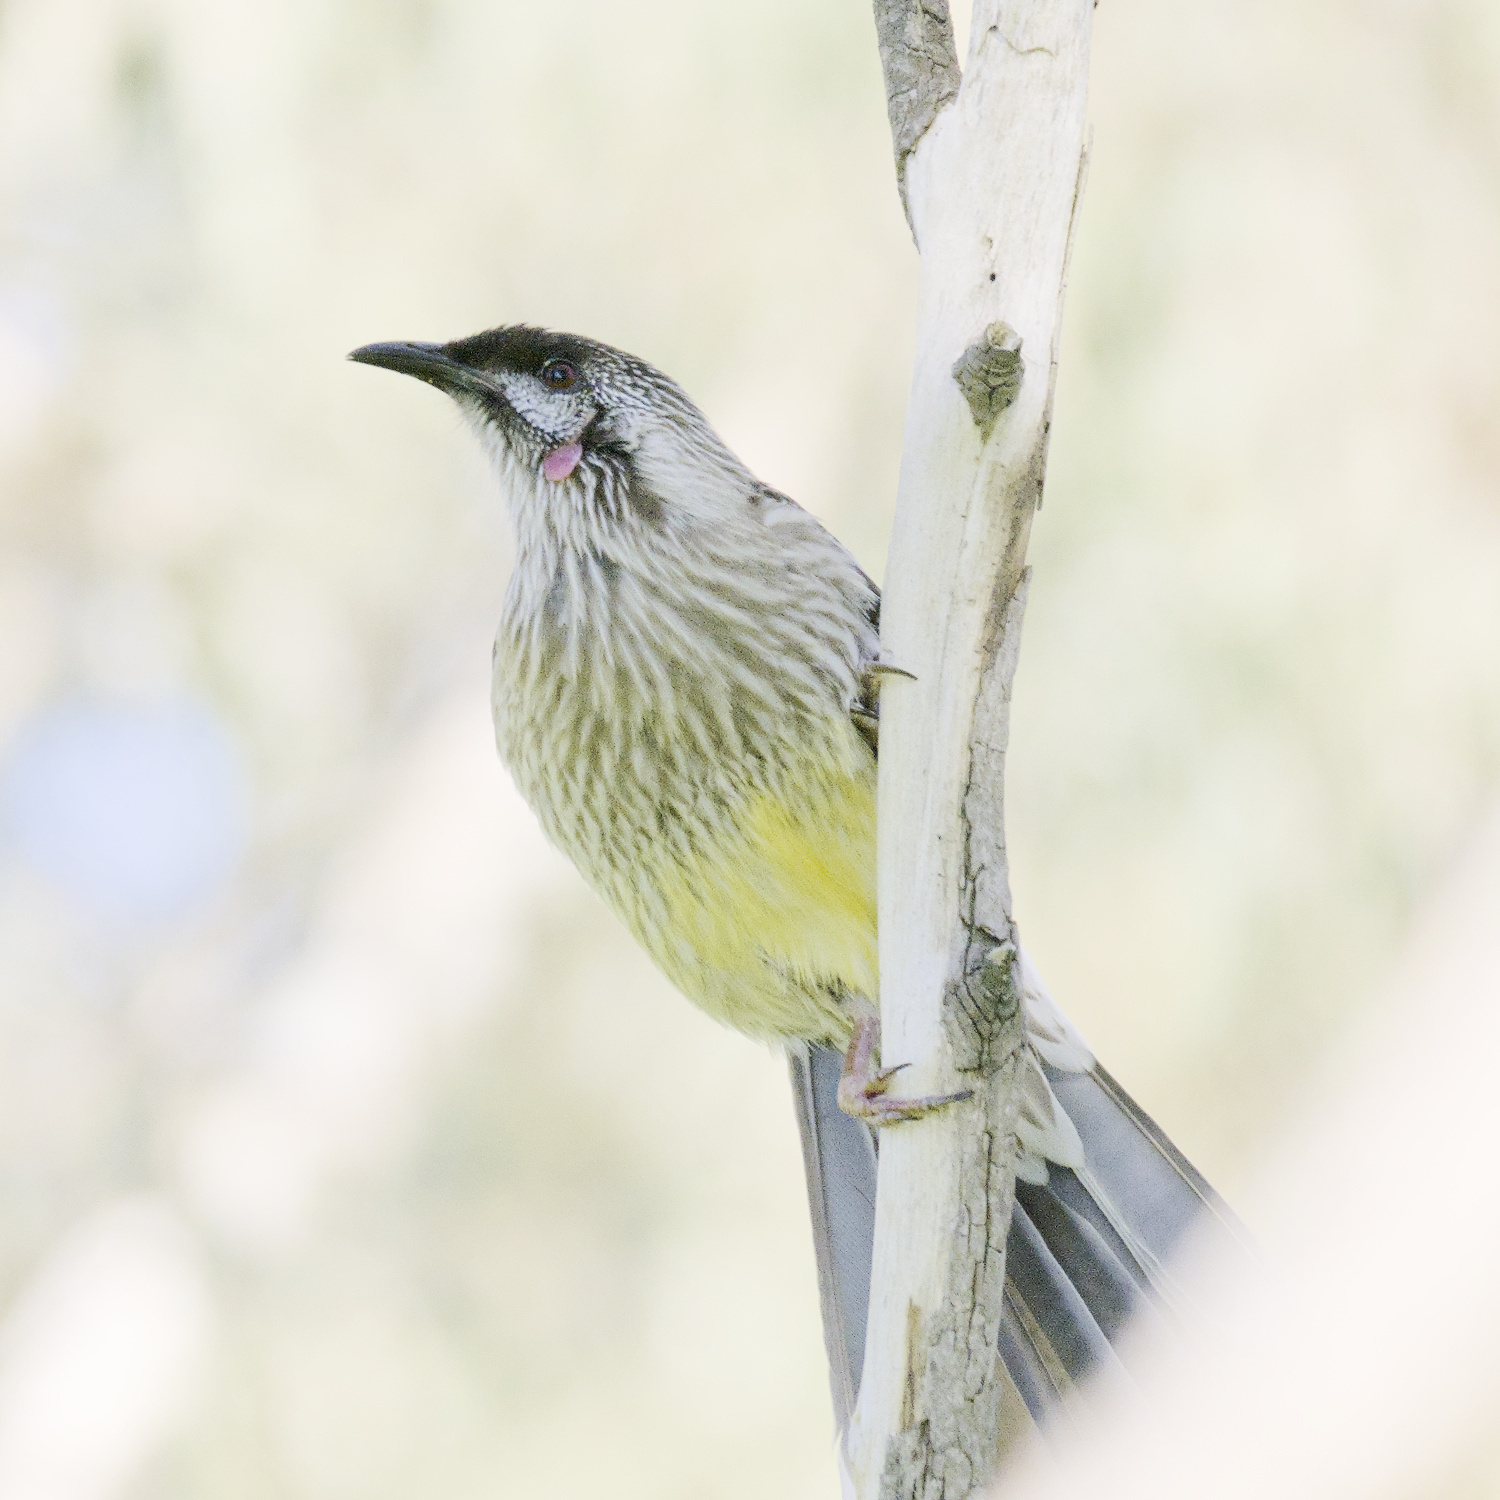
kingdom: Animalia
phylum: Chordata
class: Aves
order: Passeriformes
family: Meliphagidae
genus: Anthochaera
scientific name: Anthochaera carunculata
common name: Red wattlebird
